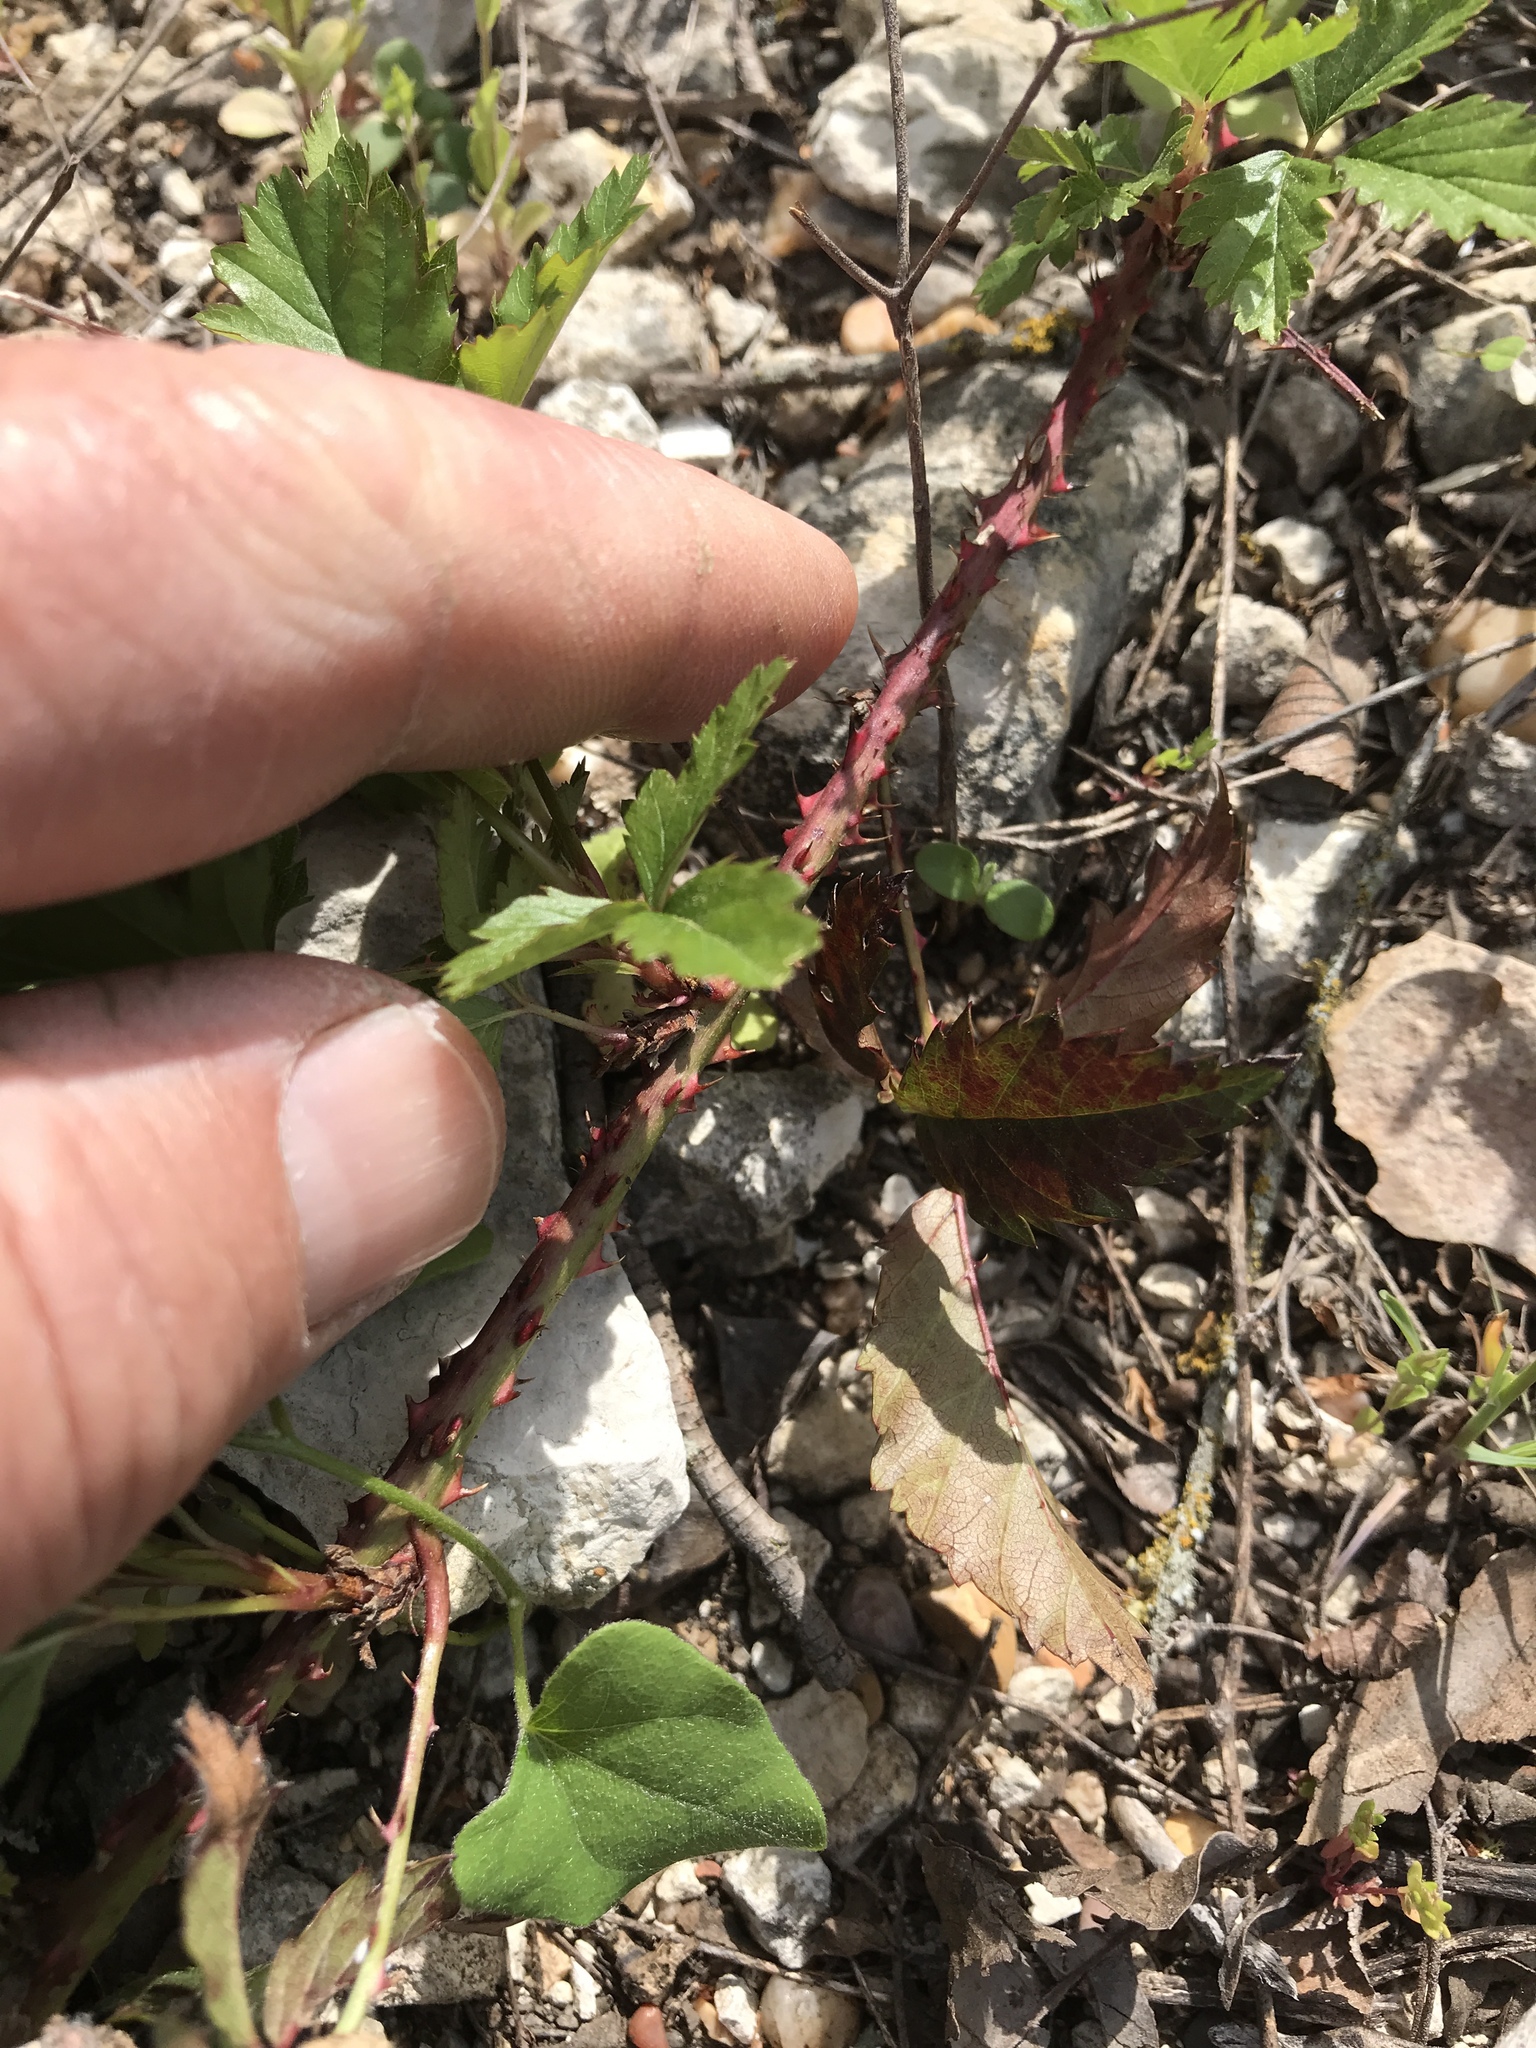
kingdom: Plantae
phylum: Tracheophyta
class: Magnoliopsida
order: Rosales
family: Rosaceae
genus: Rubus
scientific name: Rubus trivialis
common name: Southern dewberry
